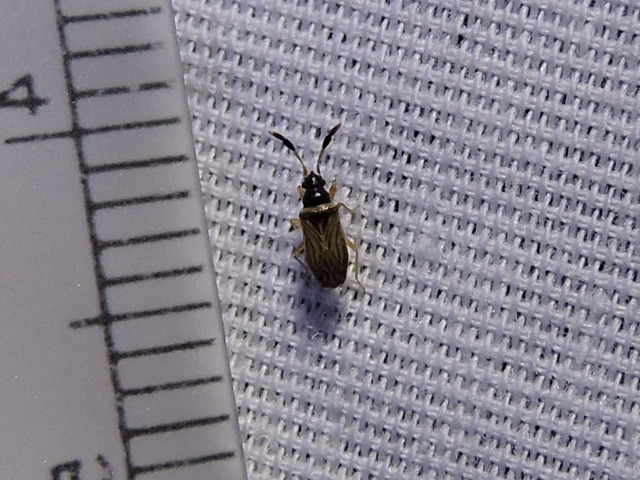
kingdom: Animalia
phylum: Arthropoda
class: Insecta
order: Hemiptera
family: Rhyparochromidae
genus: Ptochiomera
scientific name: Ptochiomera nodosa
